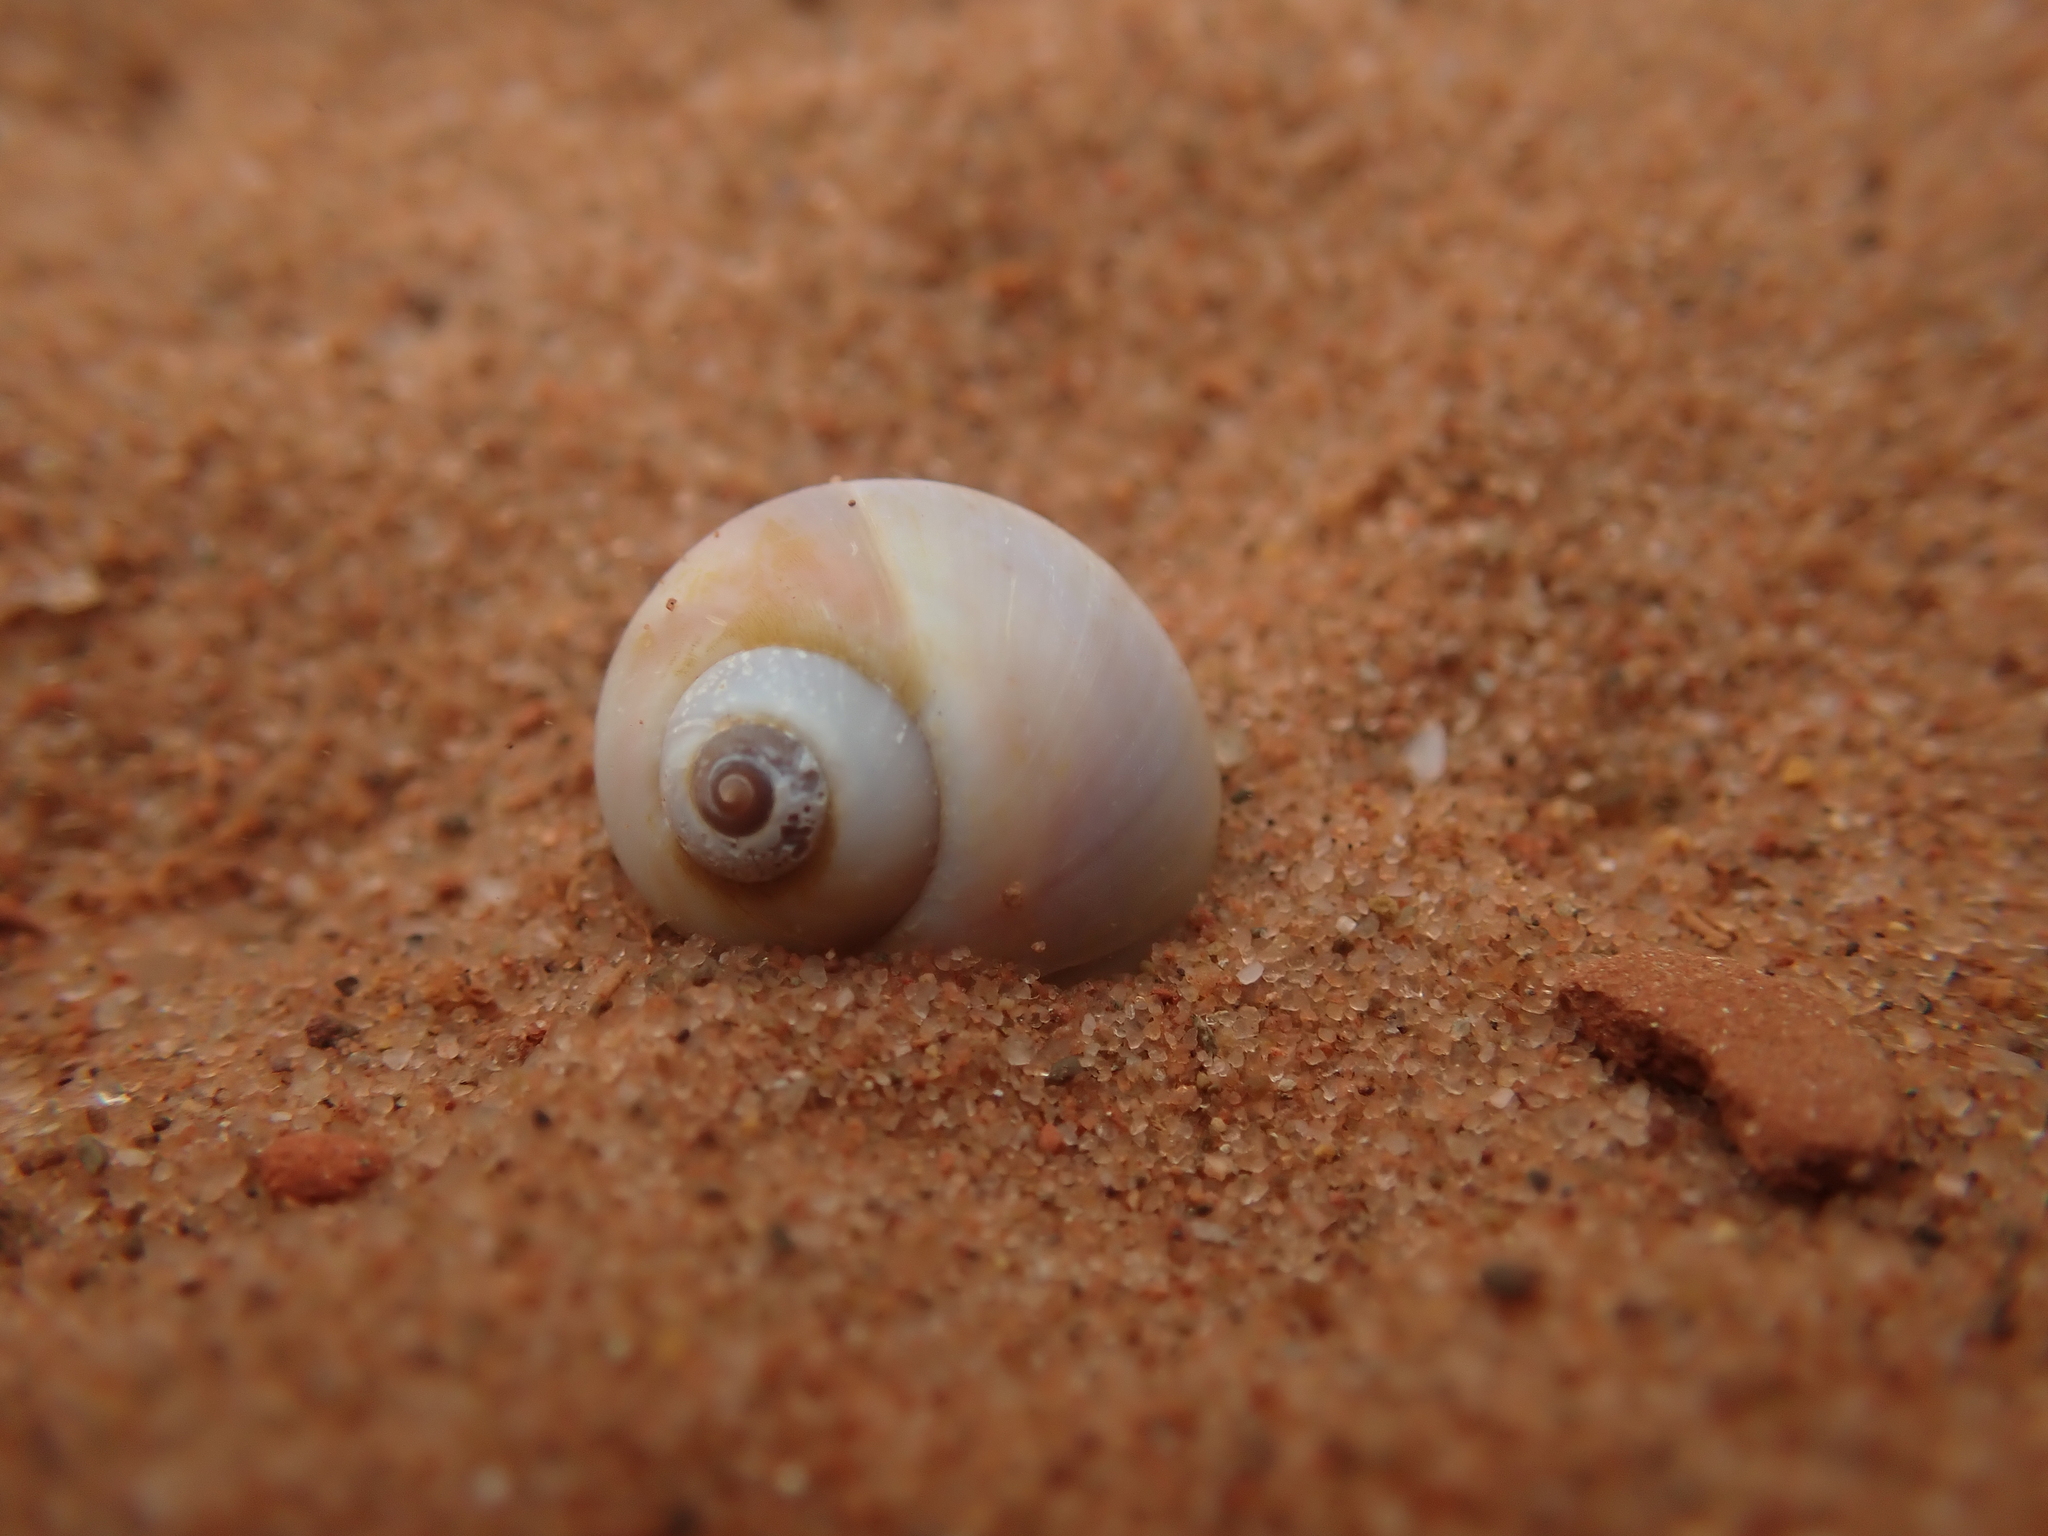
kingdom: Animalia
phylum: Mollusca
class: Gastropoda
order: Littorinimorpha
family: Naticidae
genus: Euspira
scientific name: Euspira heros
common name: Common northern moonsnail
